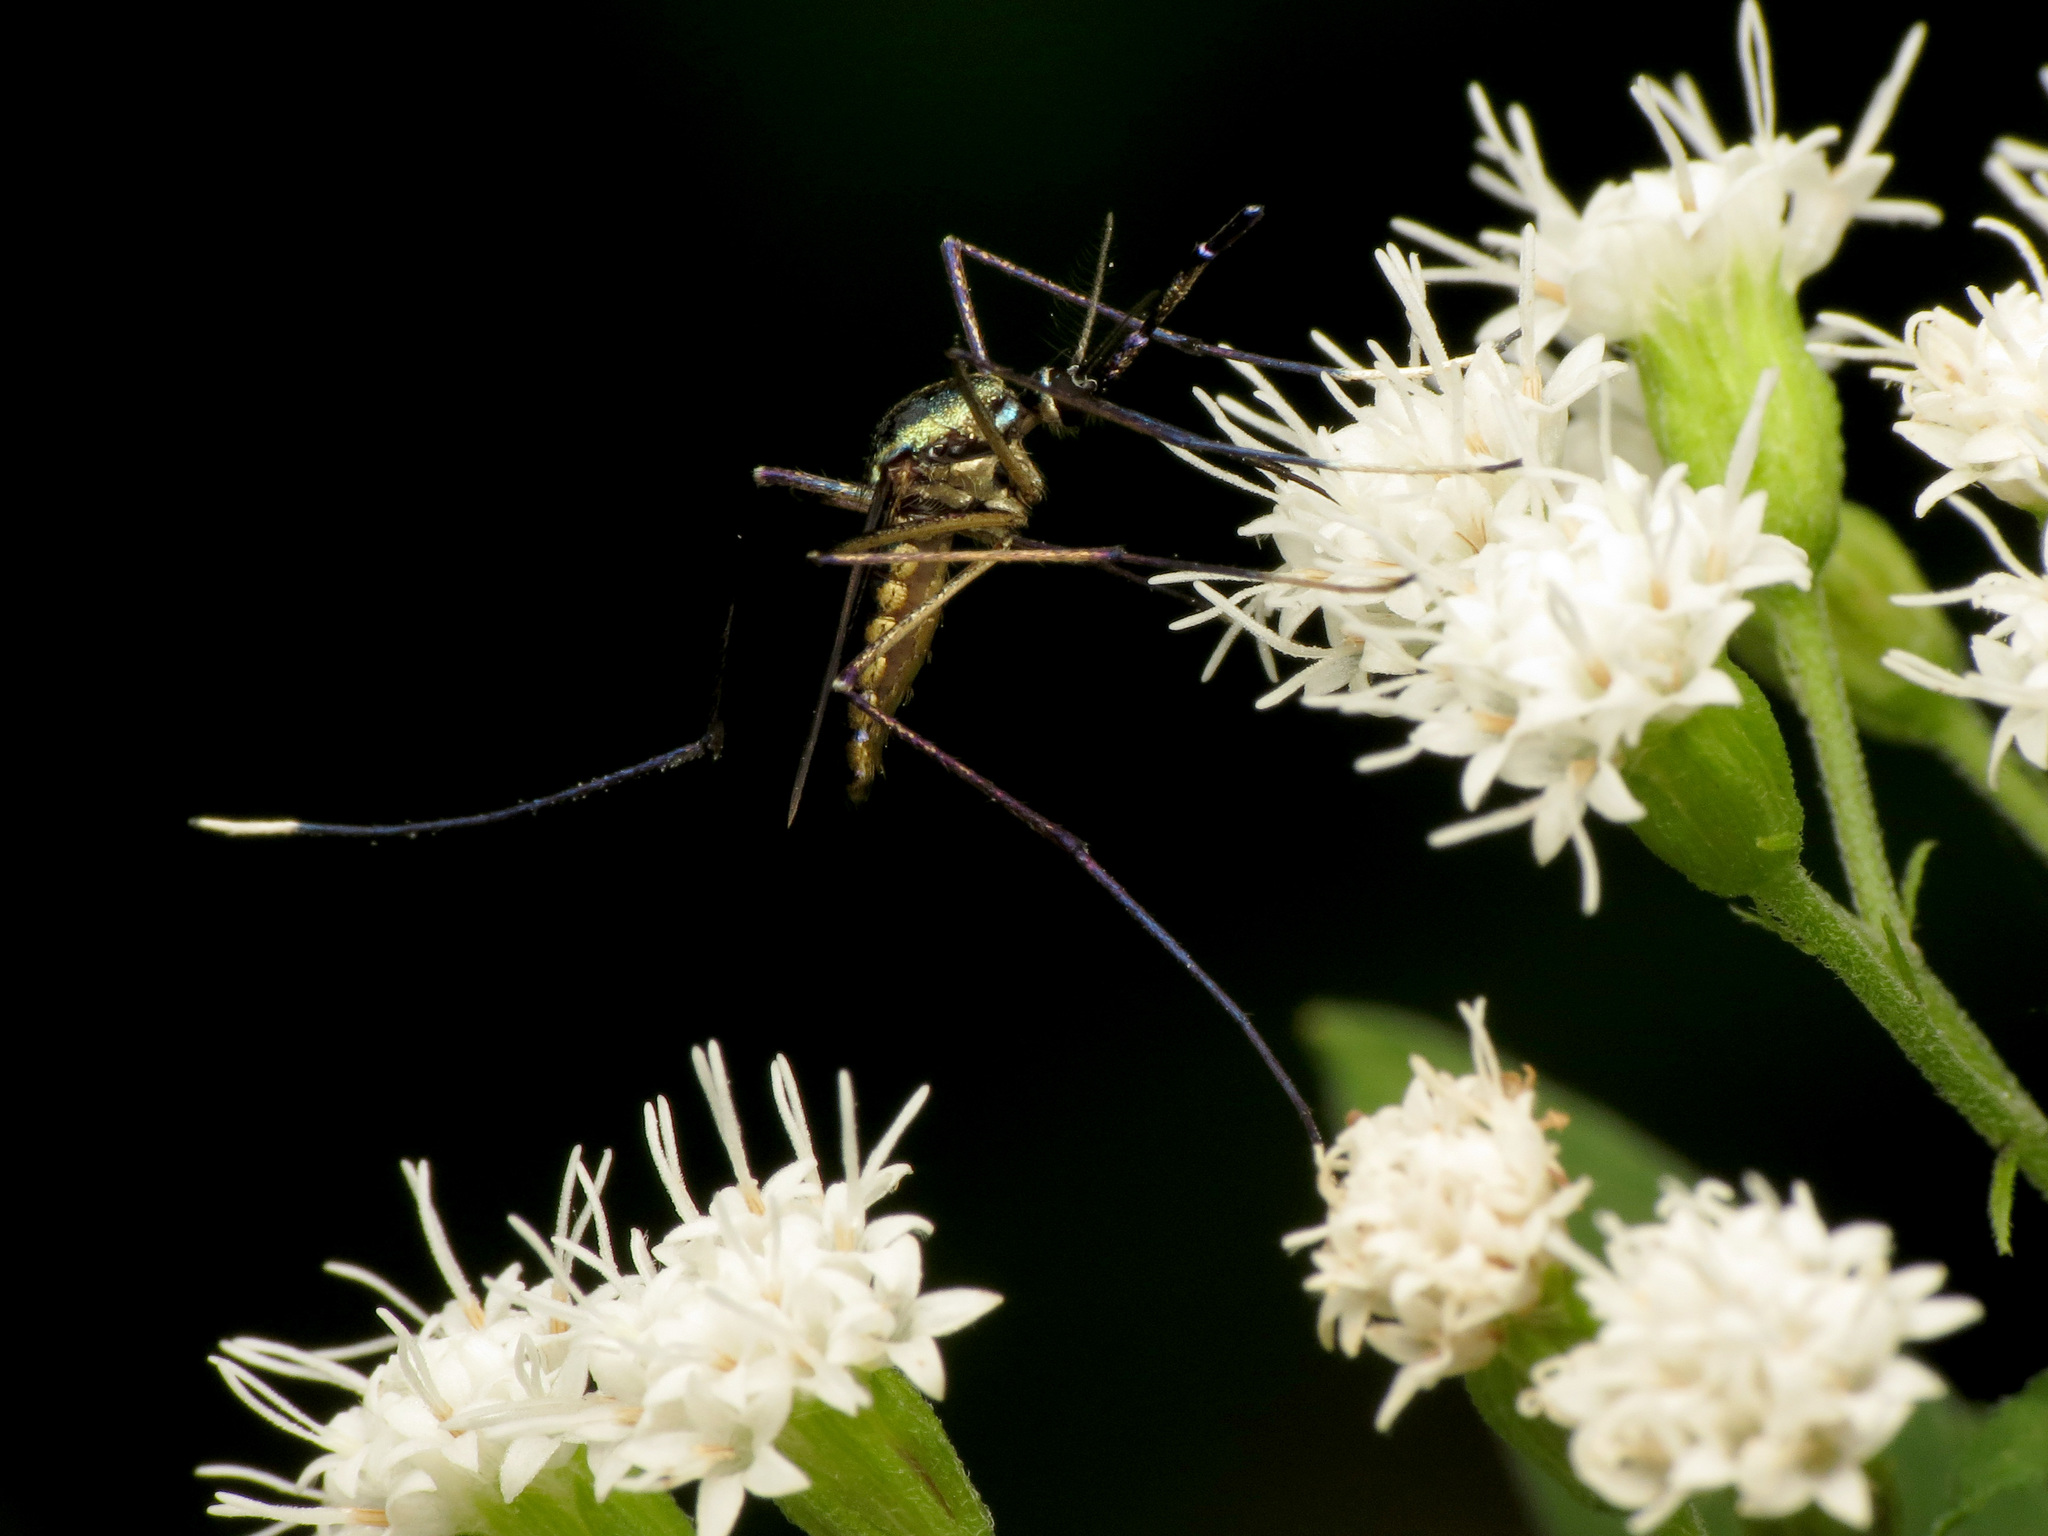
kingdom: Animalia
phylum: Arthropoda
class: Insecta
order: Diptera
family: Culicidae
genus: Toxorhynchites
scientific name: Toxorhynchites rutilus
